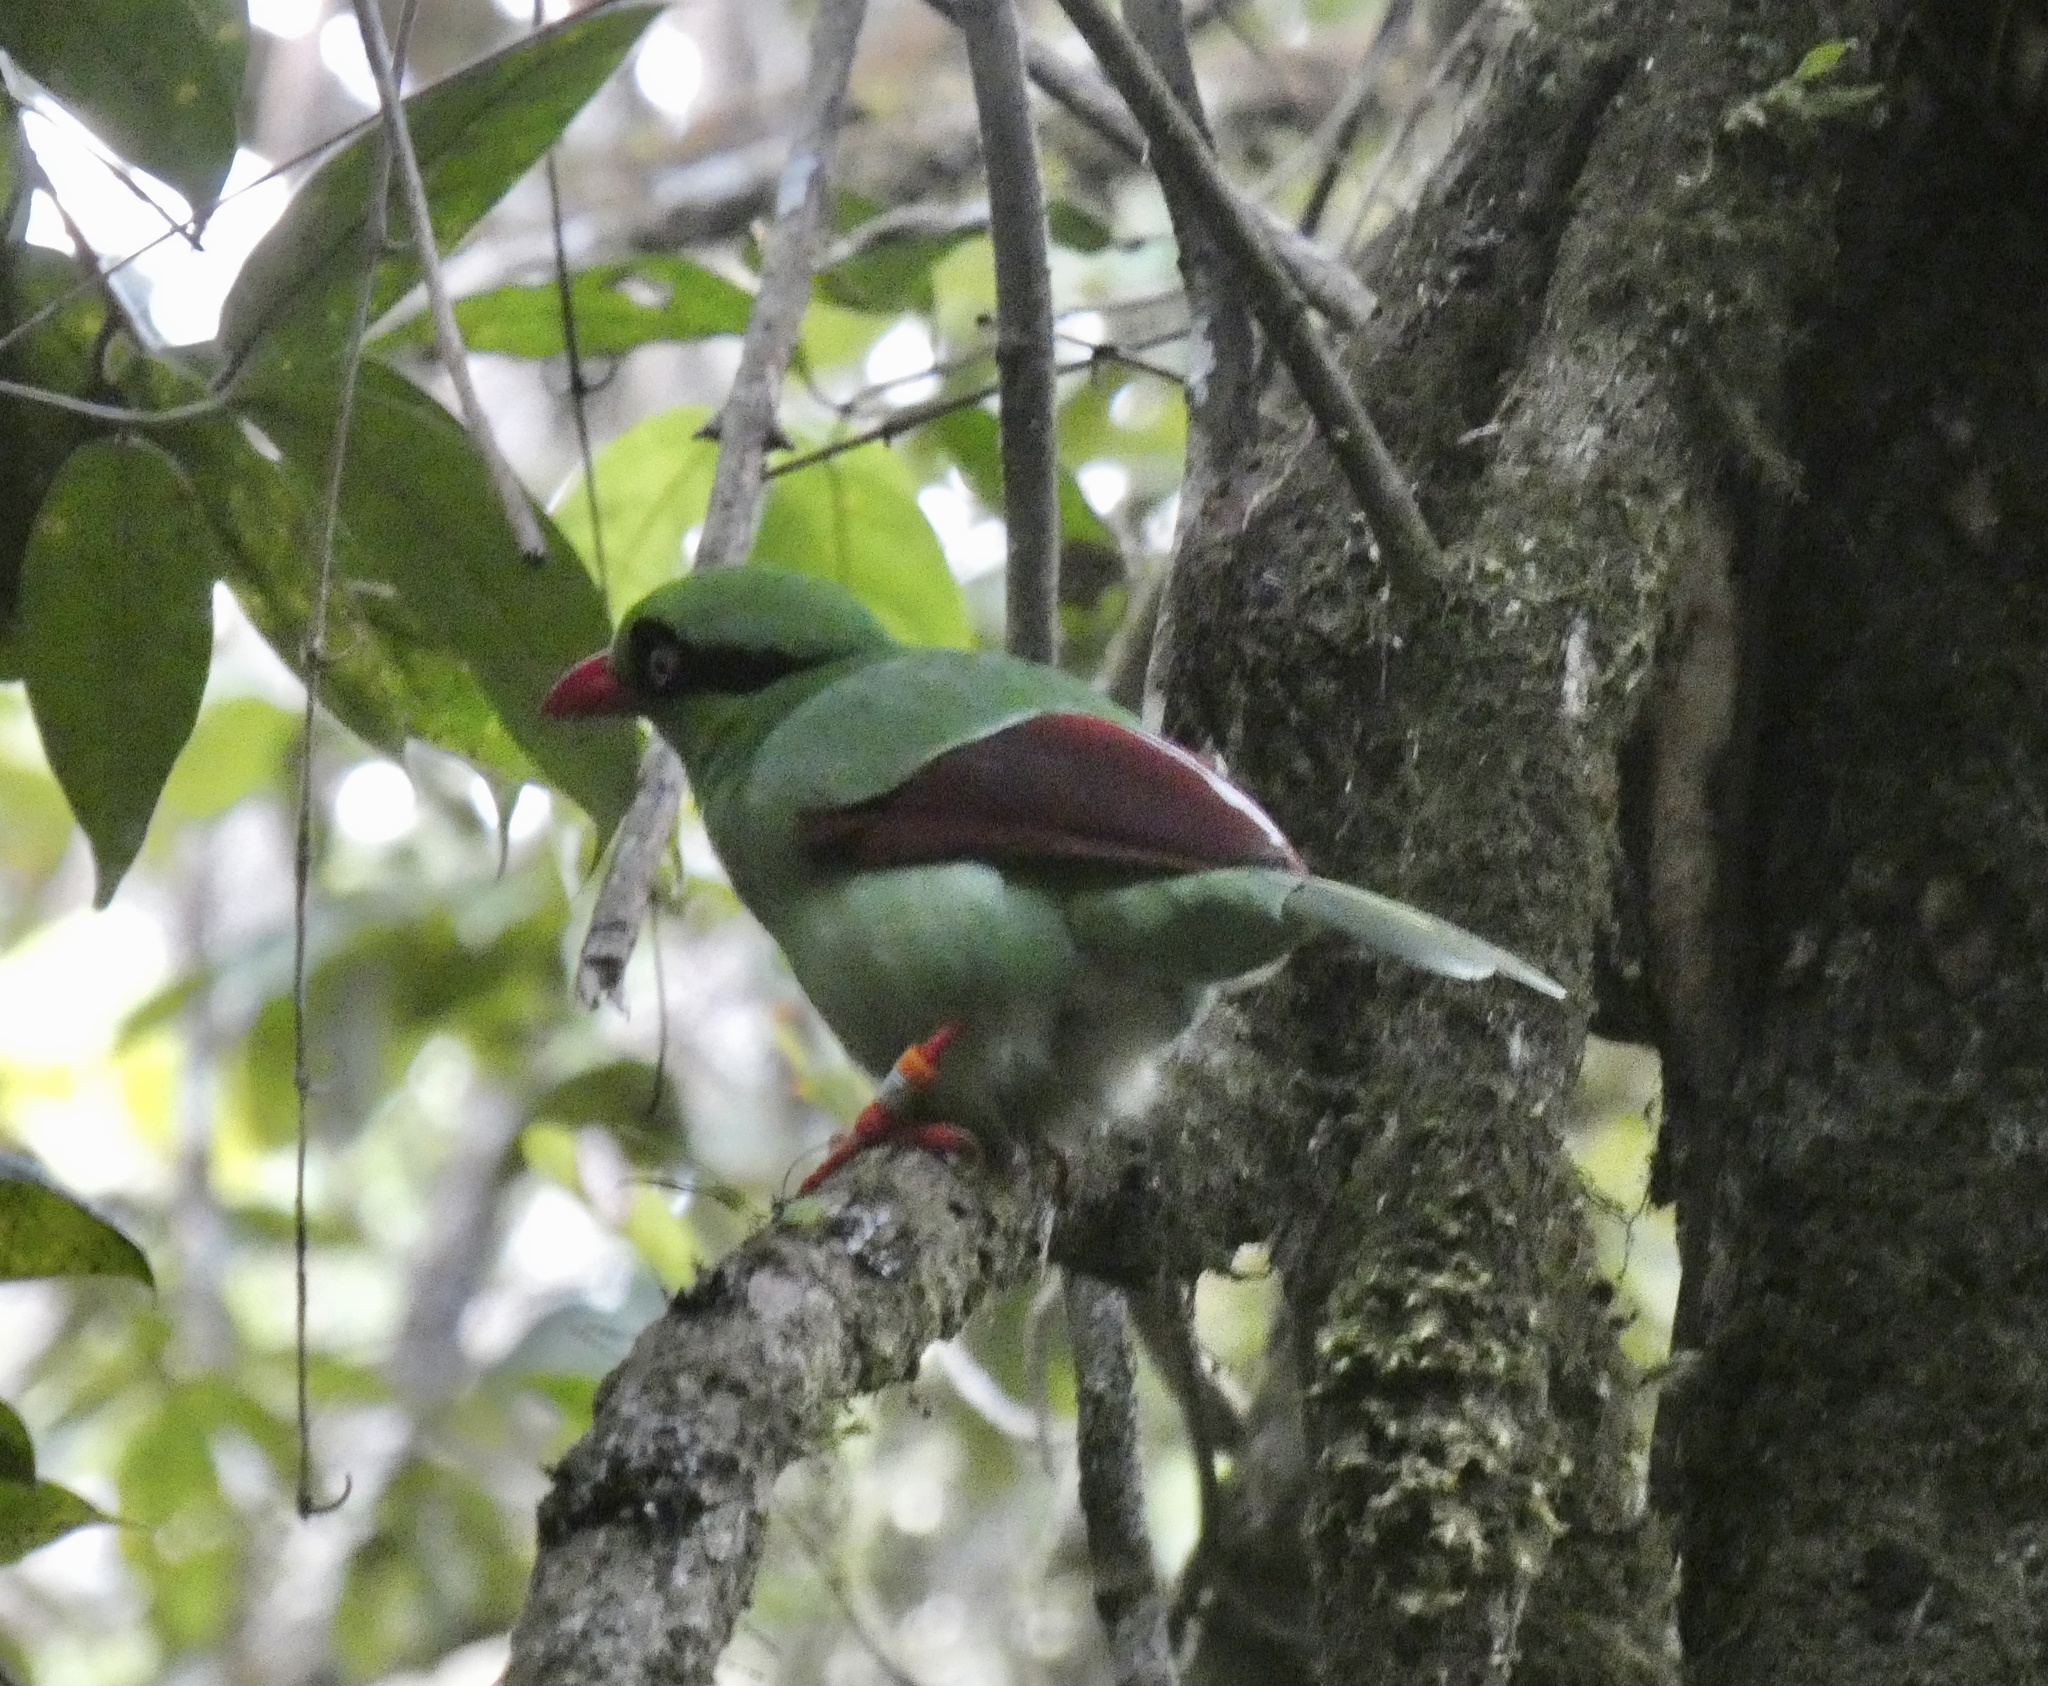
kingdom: Animalia
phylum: Chordata
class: Aves
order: Passeriformes
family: Corvidae
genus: Cissa
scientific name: Cissa jefferyi
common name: Bornean green magpie
